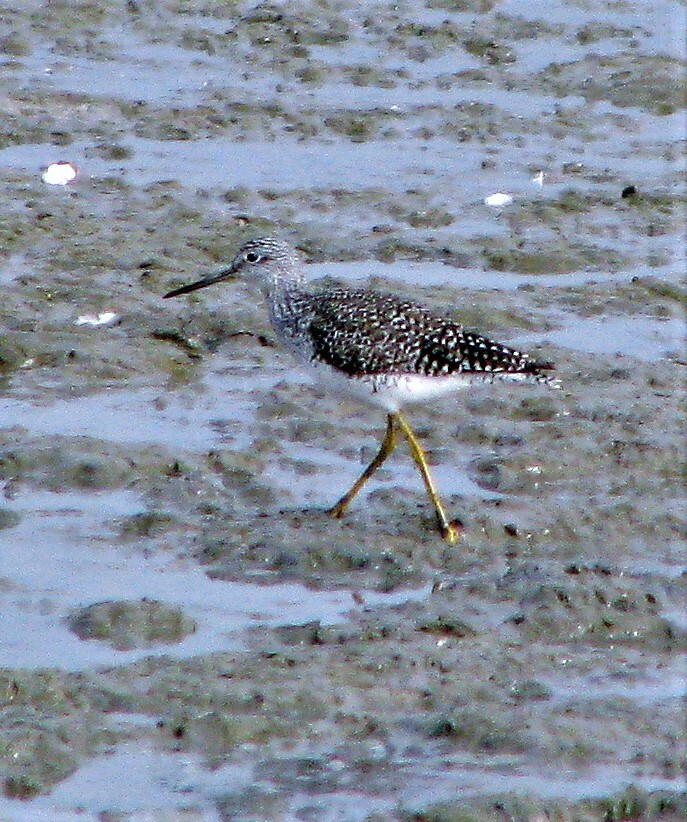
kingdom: Animalia
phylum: Chordata
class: Aves
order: Charadriiformes
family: Scolopacidae
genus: Tringa
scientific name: Tringa flavipes
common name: Lesser yellowlegs
